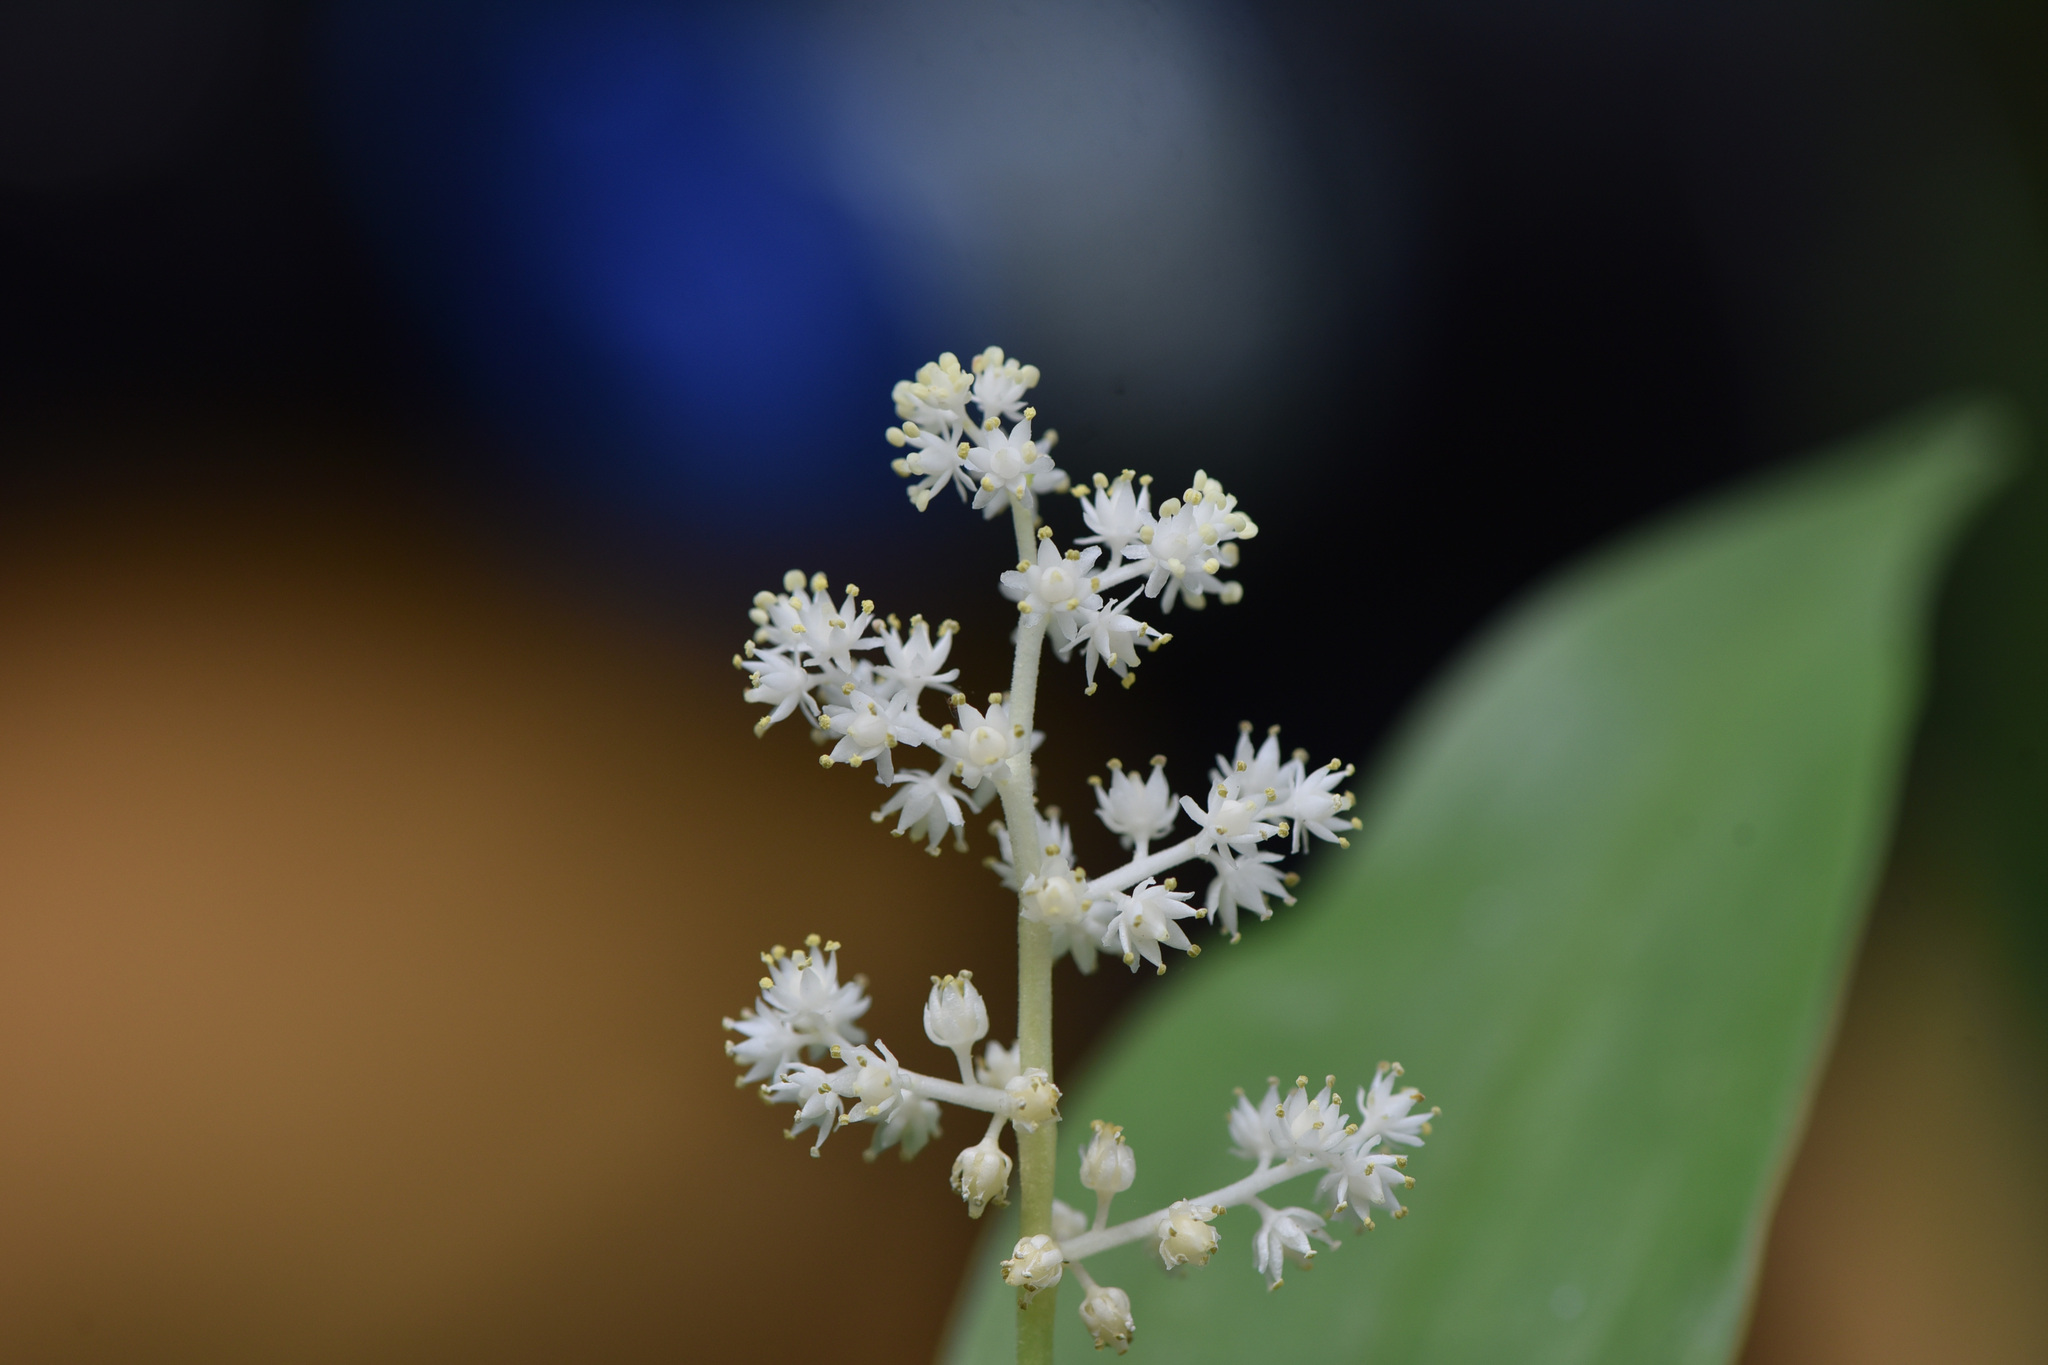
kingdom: Plantae
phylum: Tracheophyta
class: Liliopsida
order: Asparagales
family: Asparagaceae
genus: Maianthemum
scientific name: Maianthemum racemosum
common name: False spikenard
